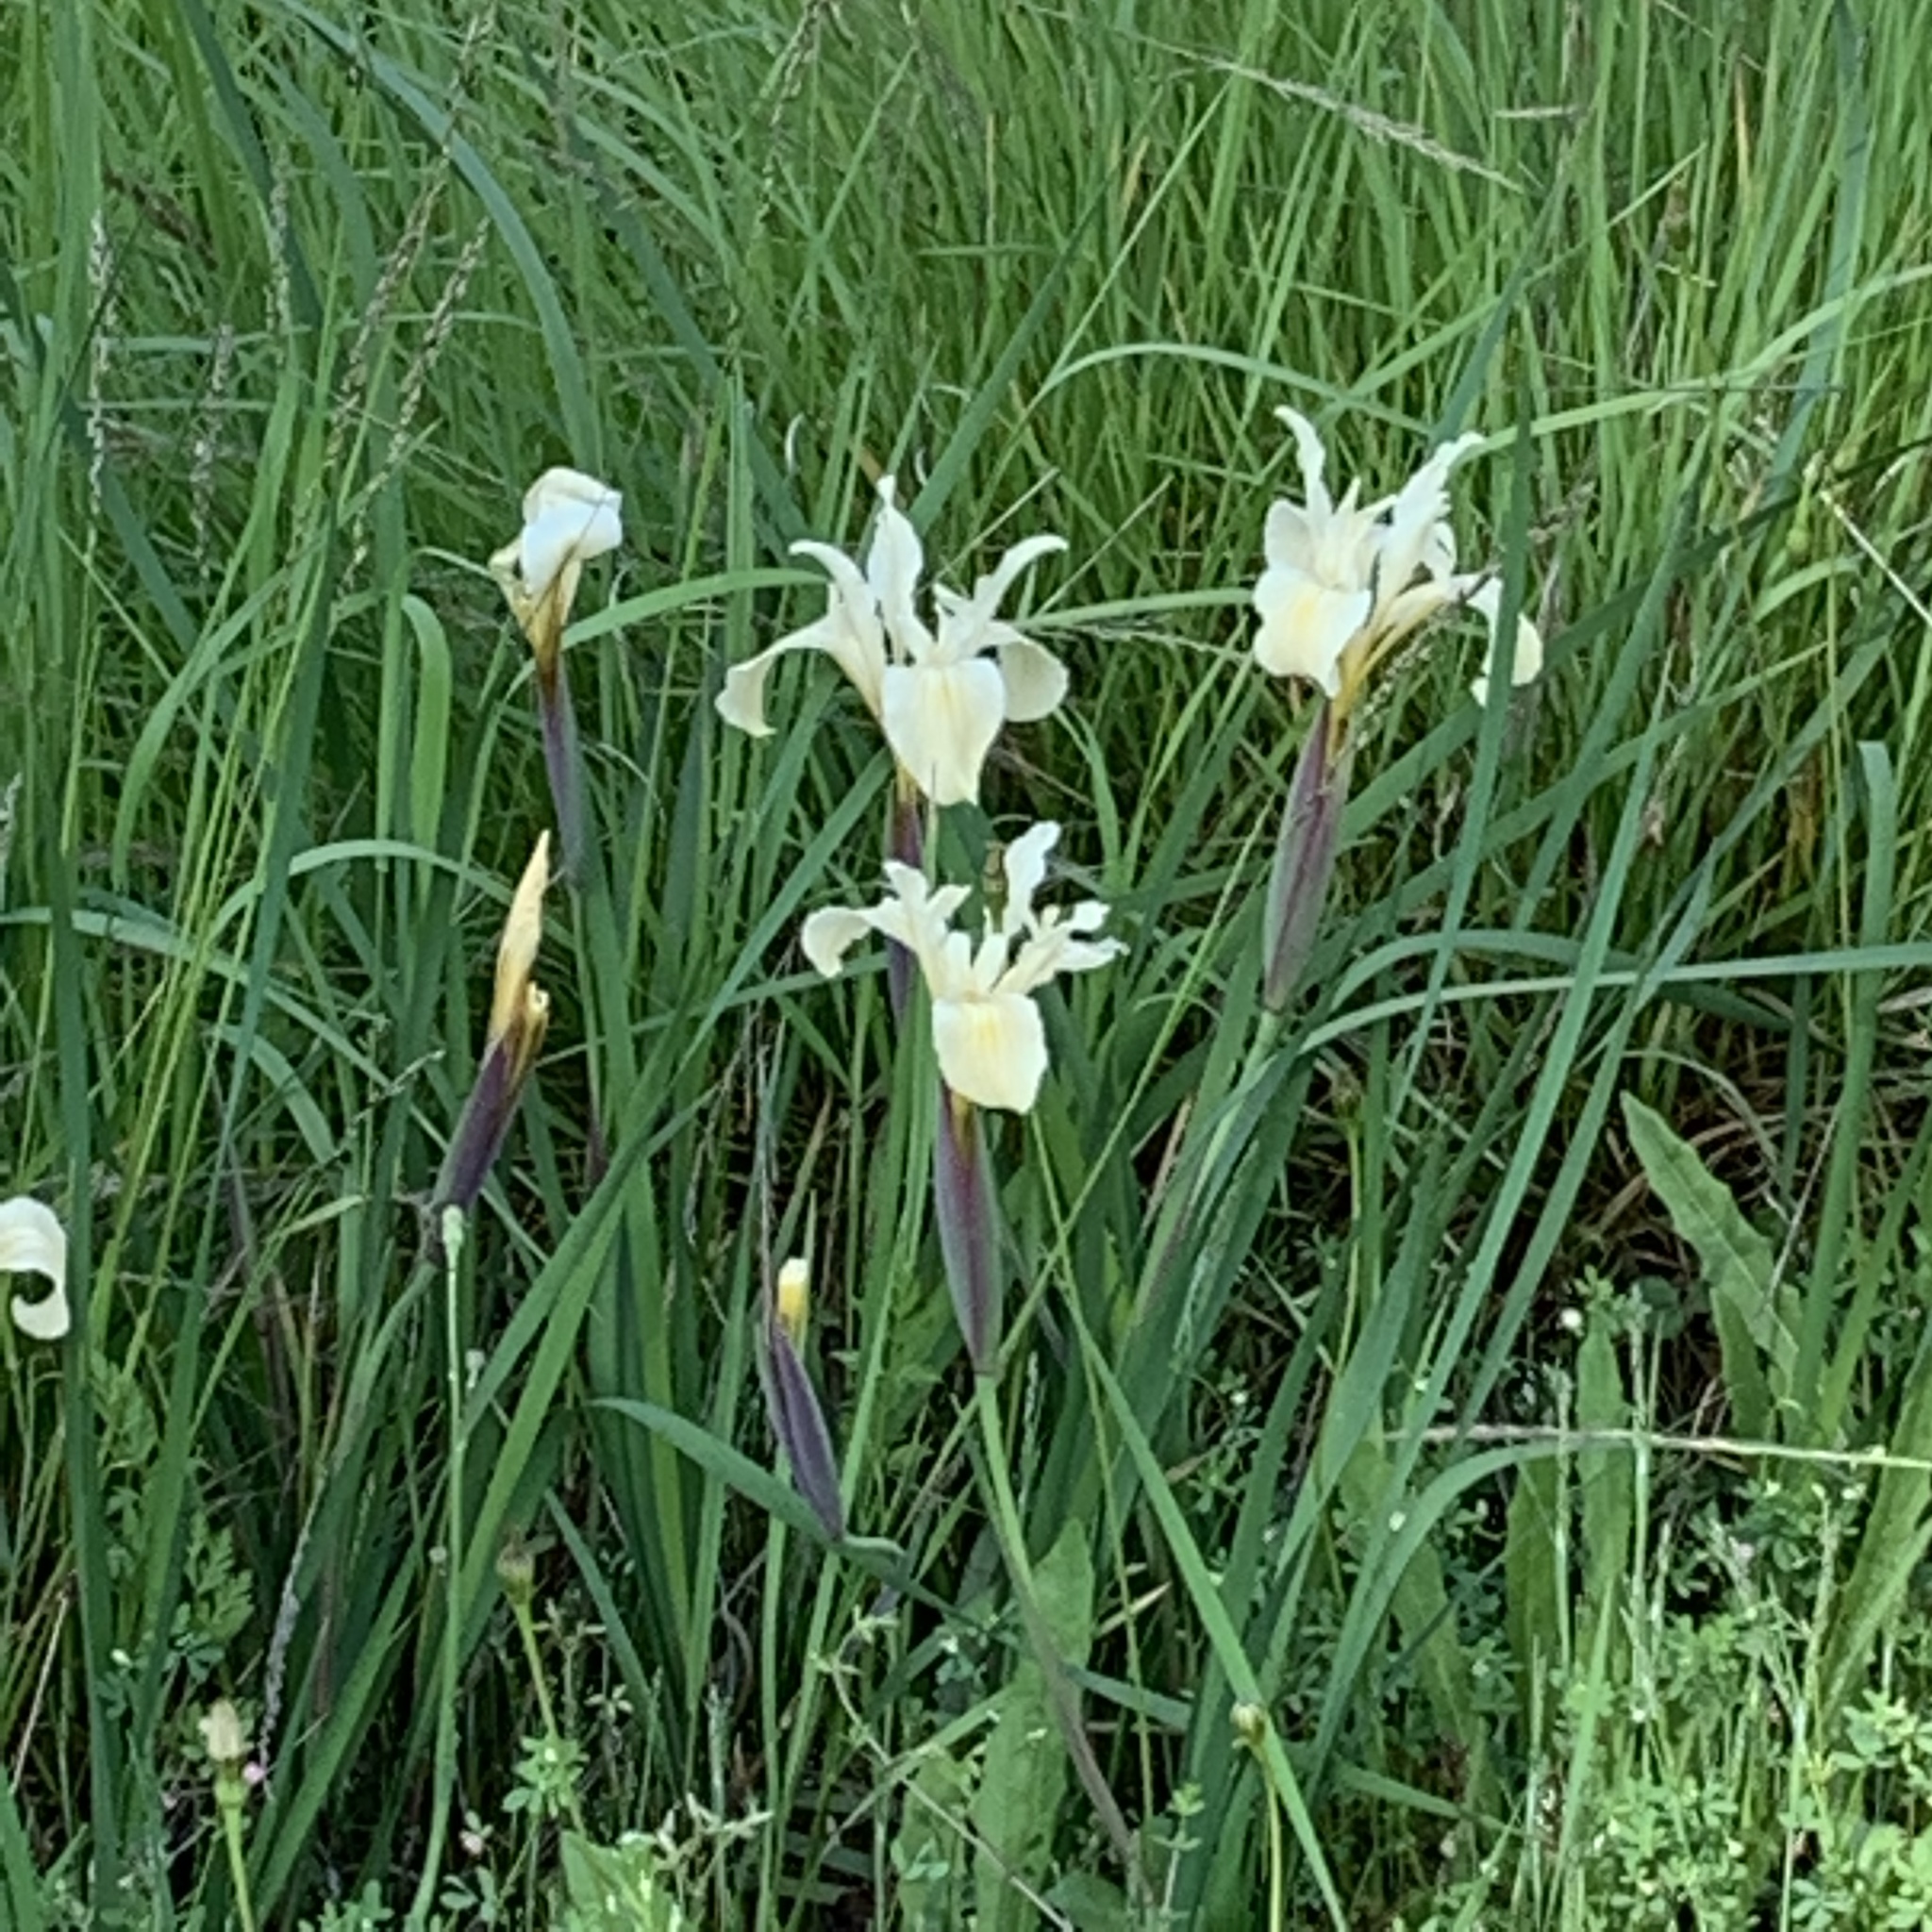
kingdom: Plantae
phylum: Tracheophyta
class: Liliopsida
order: Asparagales
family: Iridaceae
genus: Iris
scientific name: Iris fernaldii
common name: Fernald's iris
